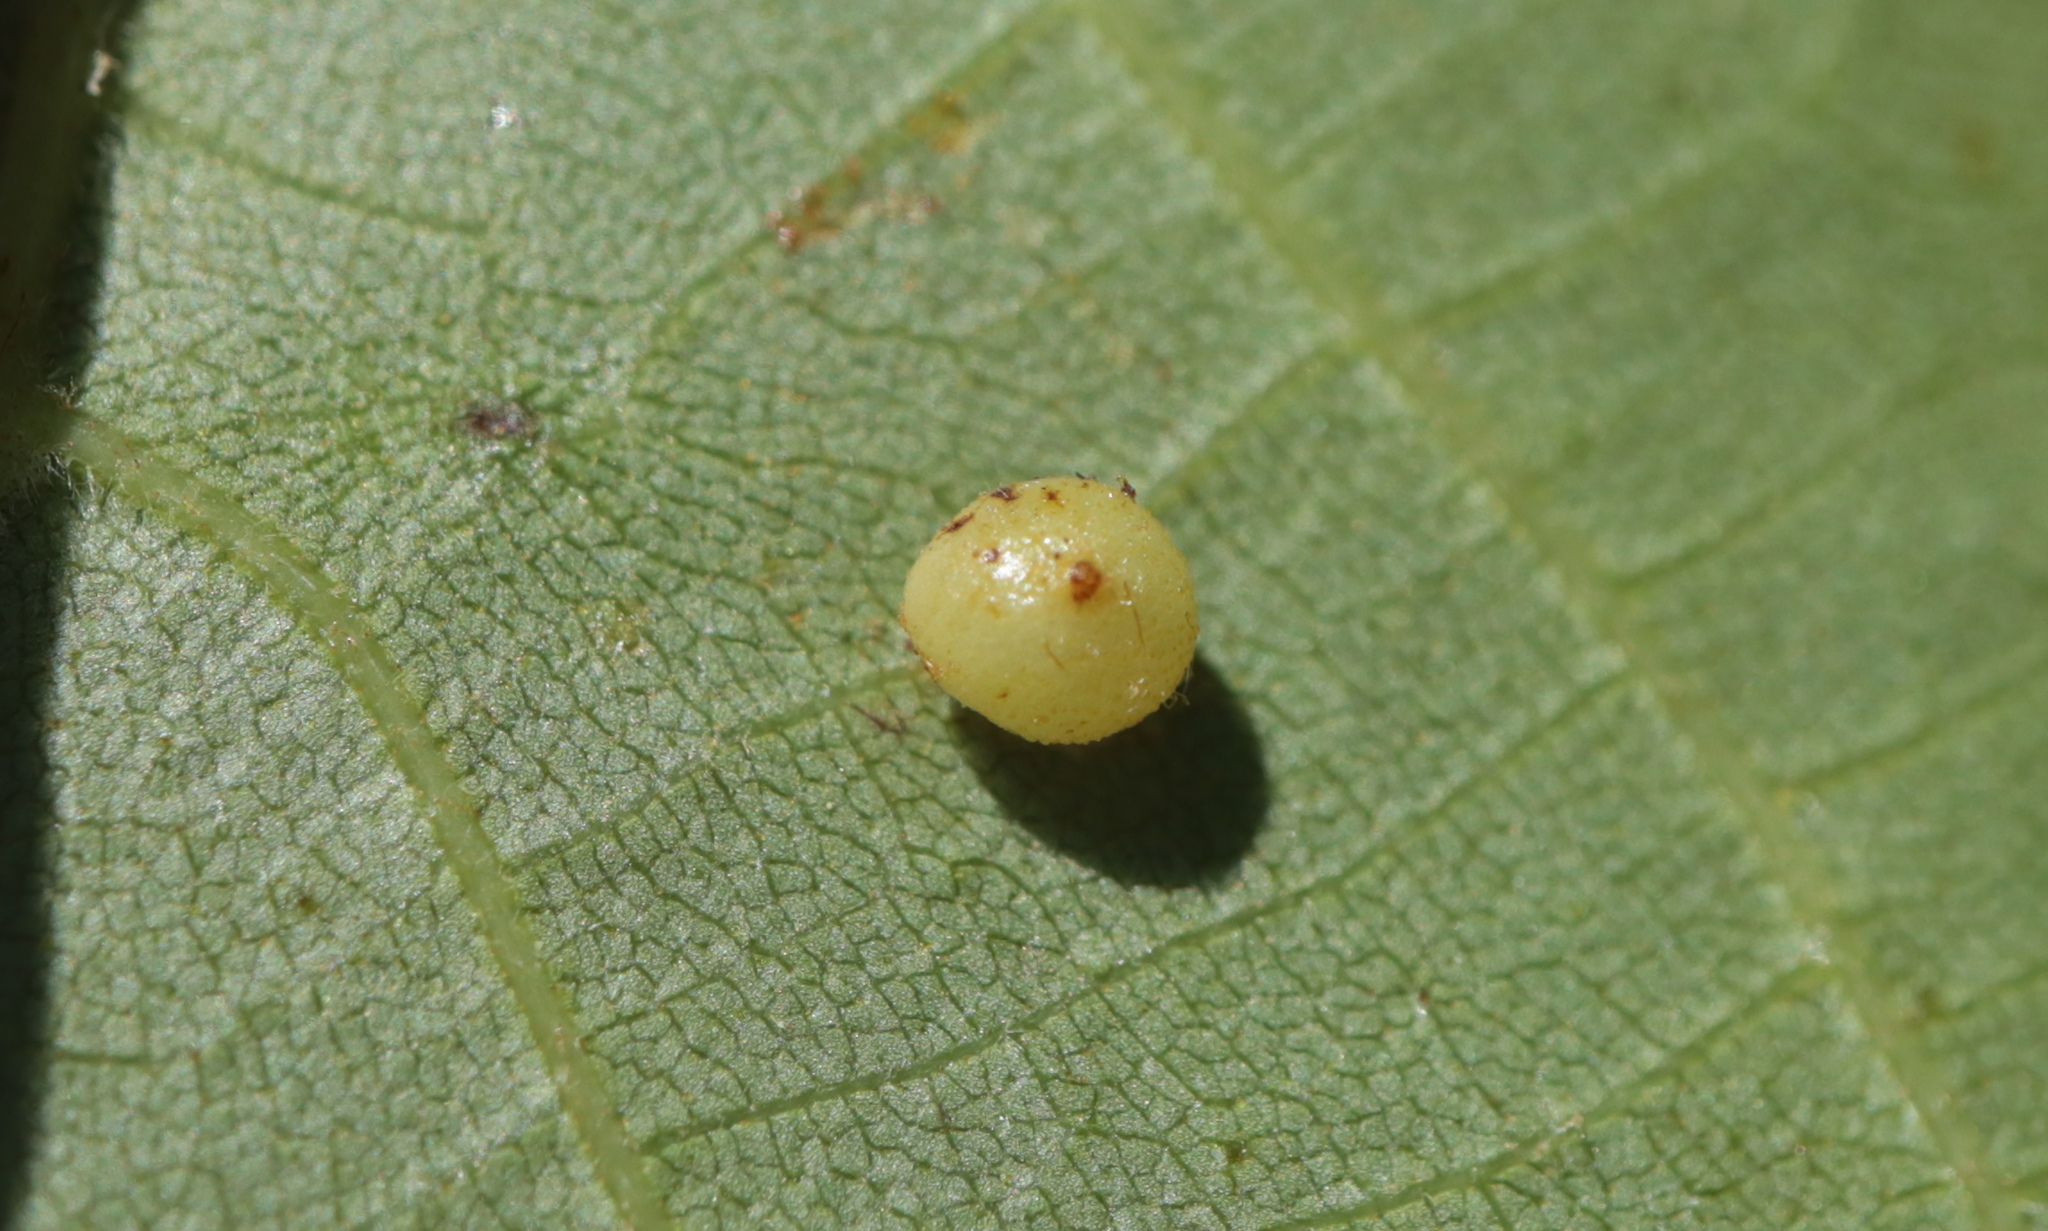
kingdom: Animalia
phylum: Arthropoda
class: Insecta
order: Diptera
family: Cecidomyiidae
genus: Caryomyia
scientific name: Caryomyia caryae
